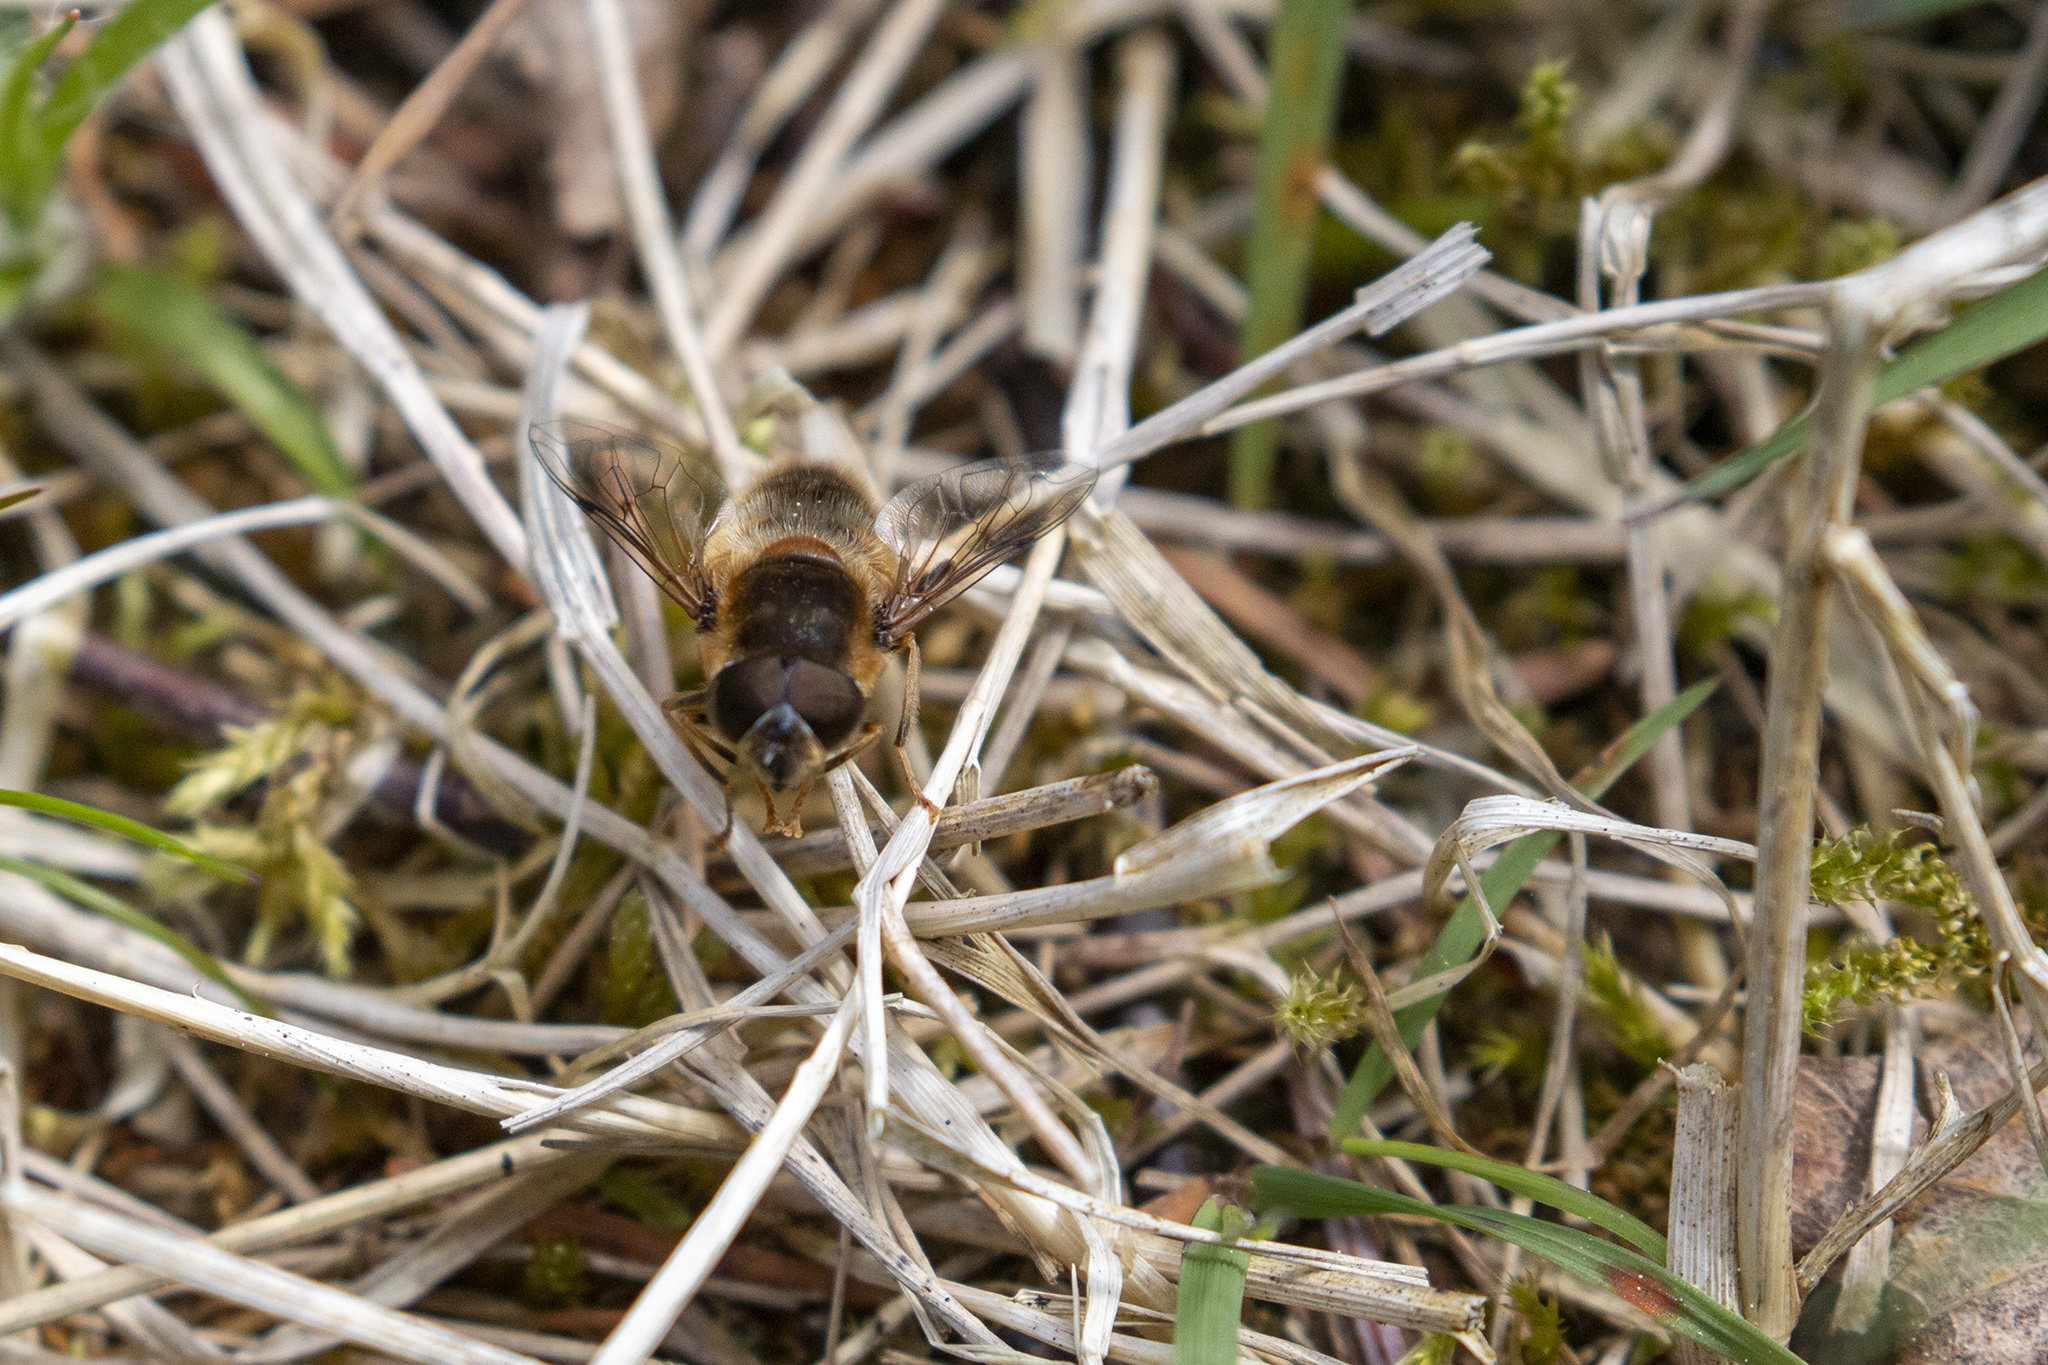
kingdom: Animalia
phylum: Arthropoda
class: Insecta
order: Diptera
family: Syrphidae
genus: Eristalis
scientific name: Eristalis pertinax
